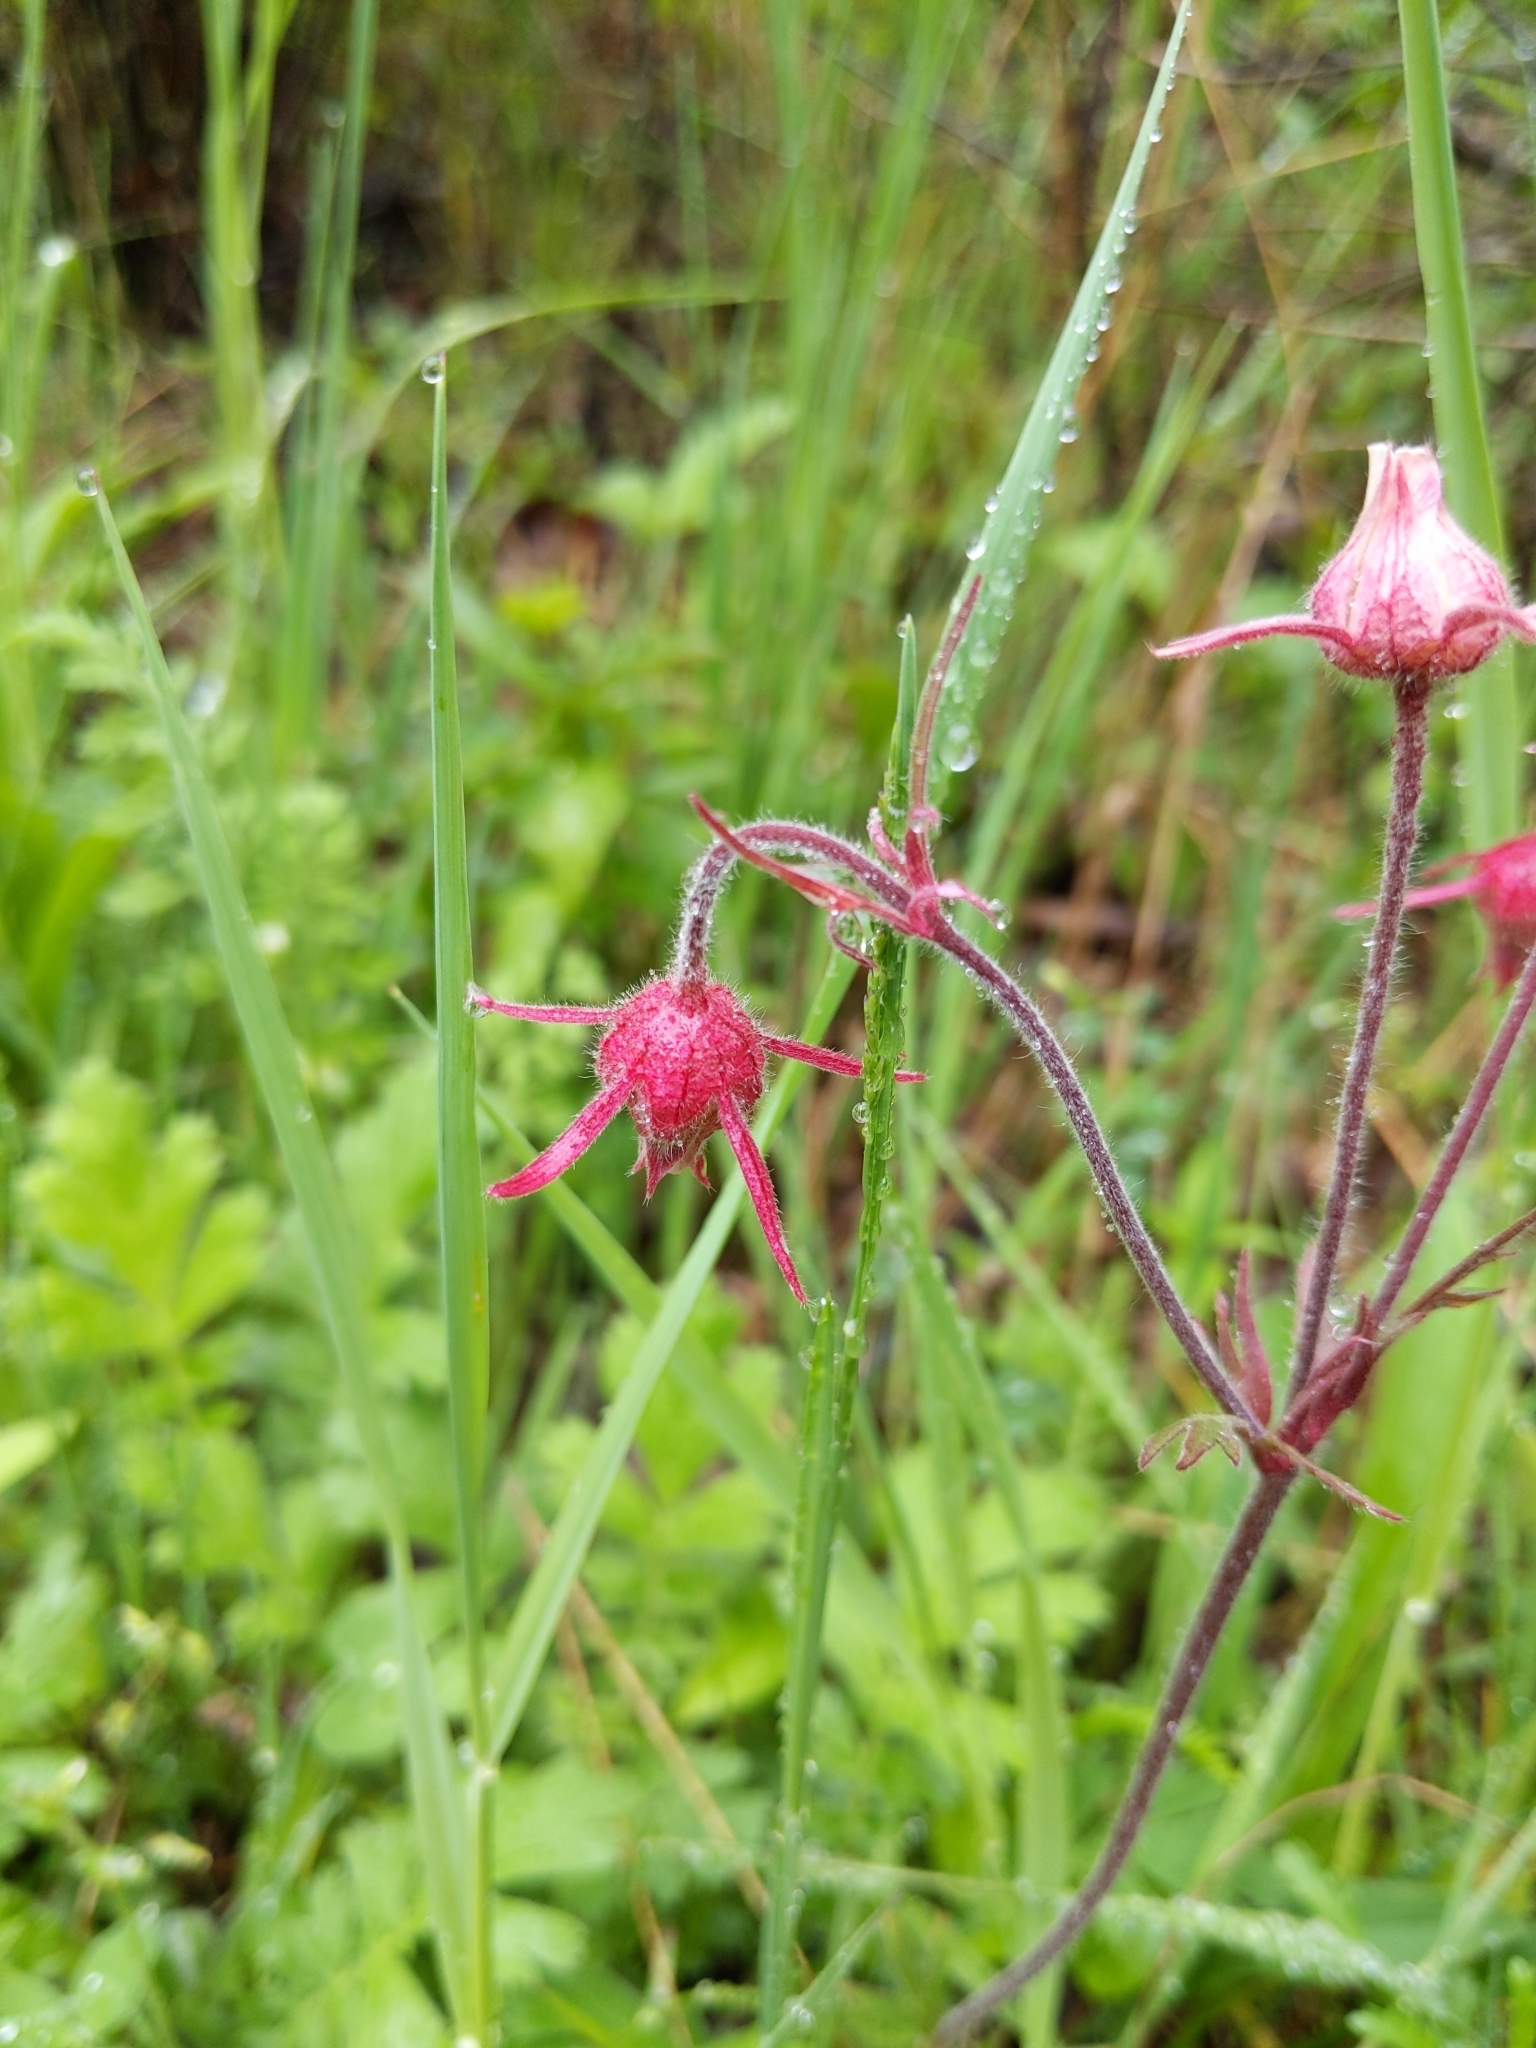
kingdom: Plantae
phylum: Tracheophyta
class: Magnoliopsida
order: Rosales
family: Rosaceae
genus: Geum
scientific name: Geum triflorum
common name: Old man's whiskers
